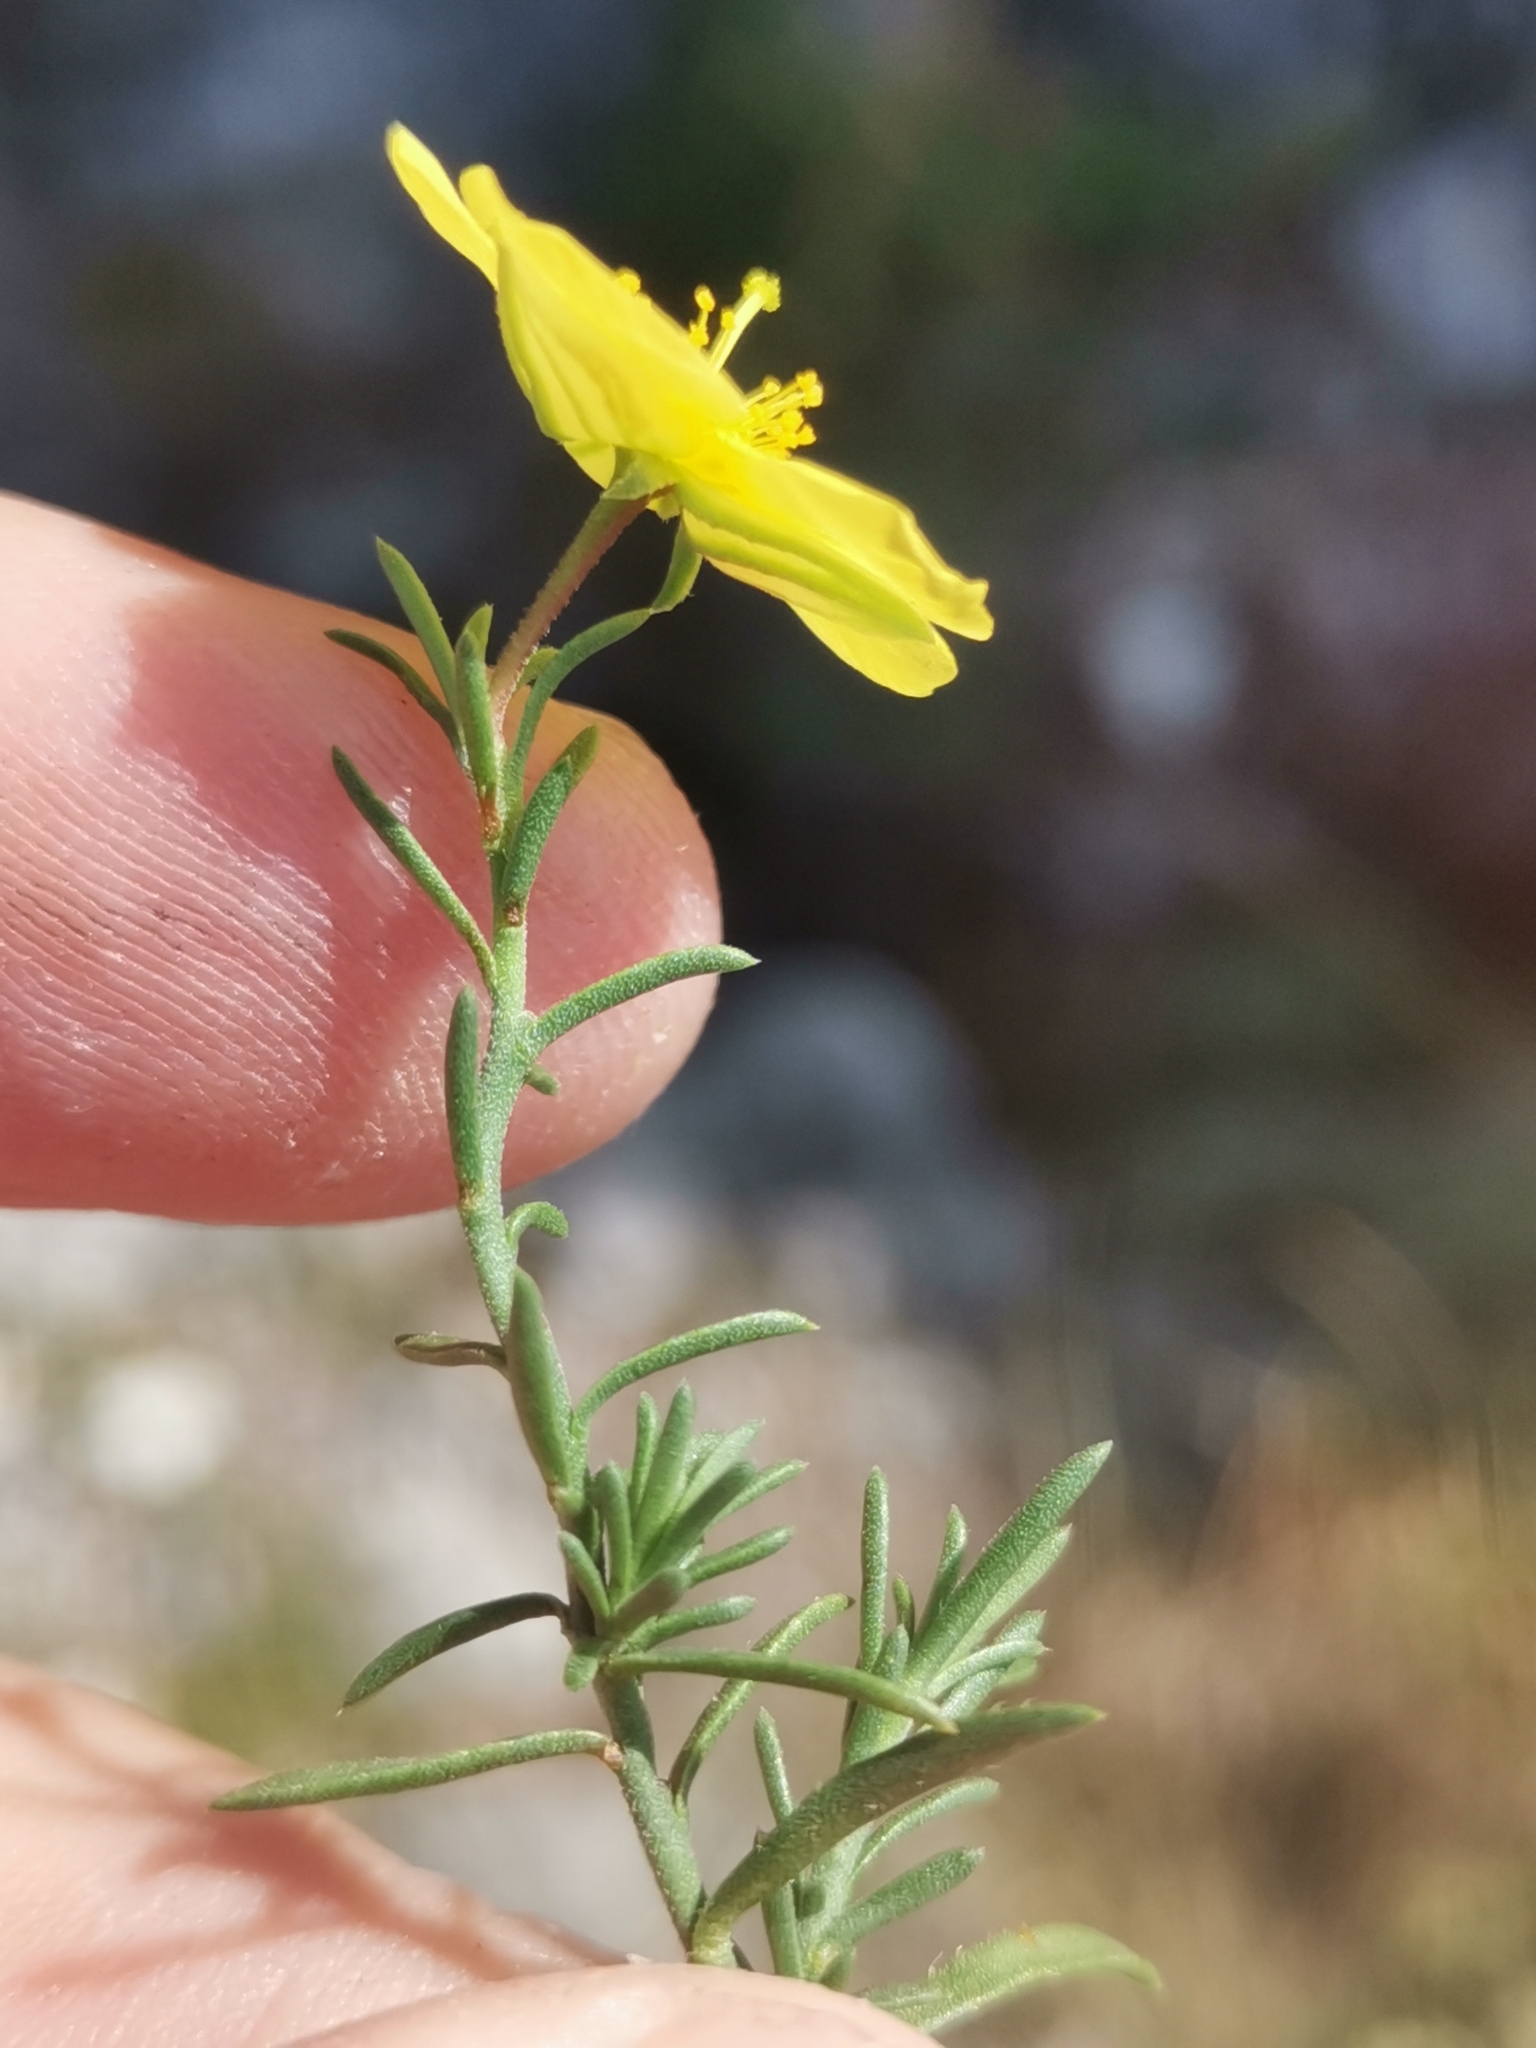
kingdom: Plantae
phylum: Tracheophyta
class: Magnoliopsida
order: Malvales
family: Cistaceae
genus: Fumana
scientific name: Fumana procumbens
